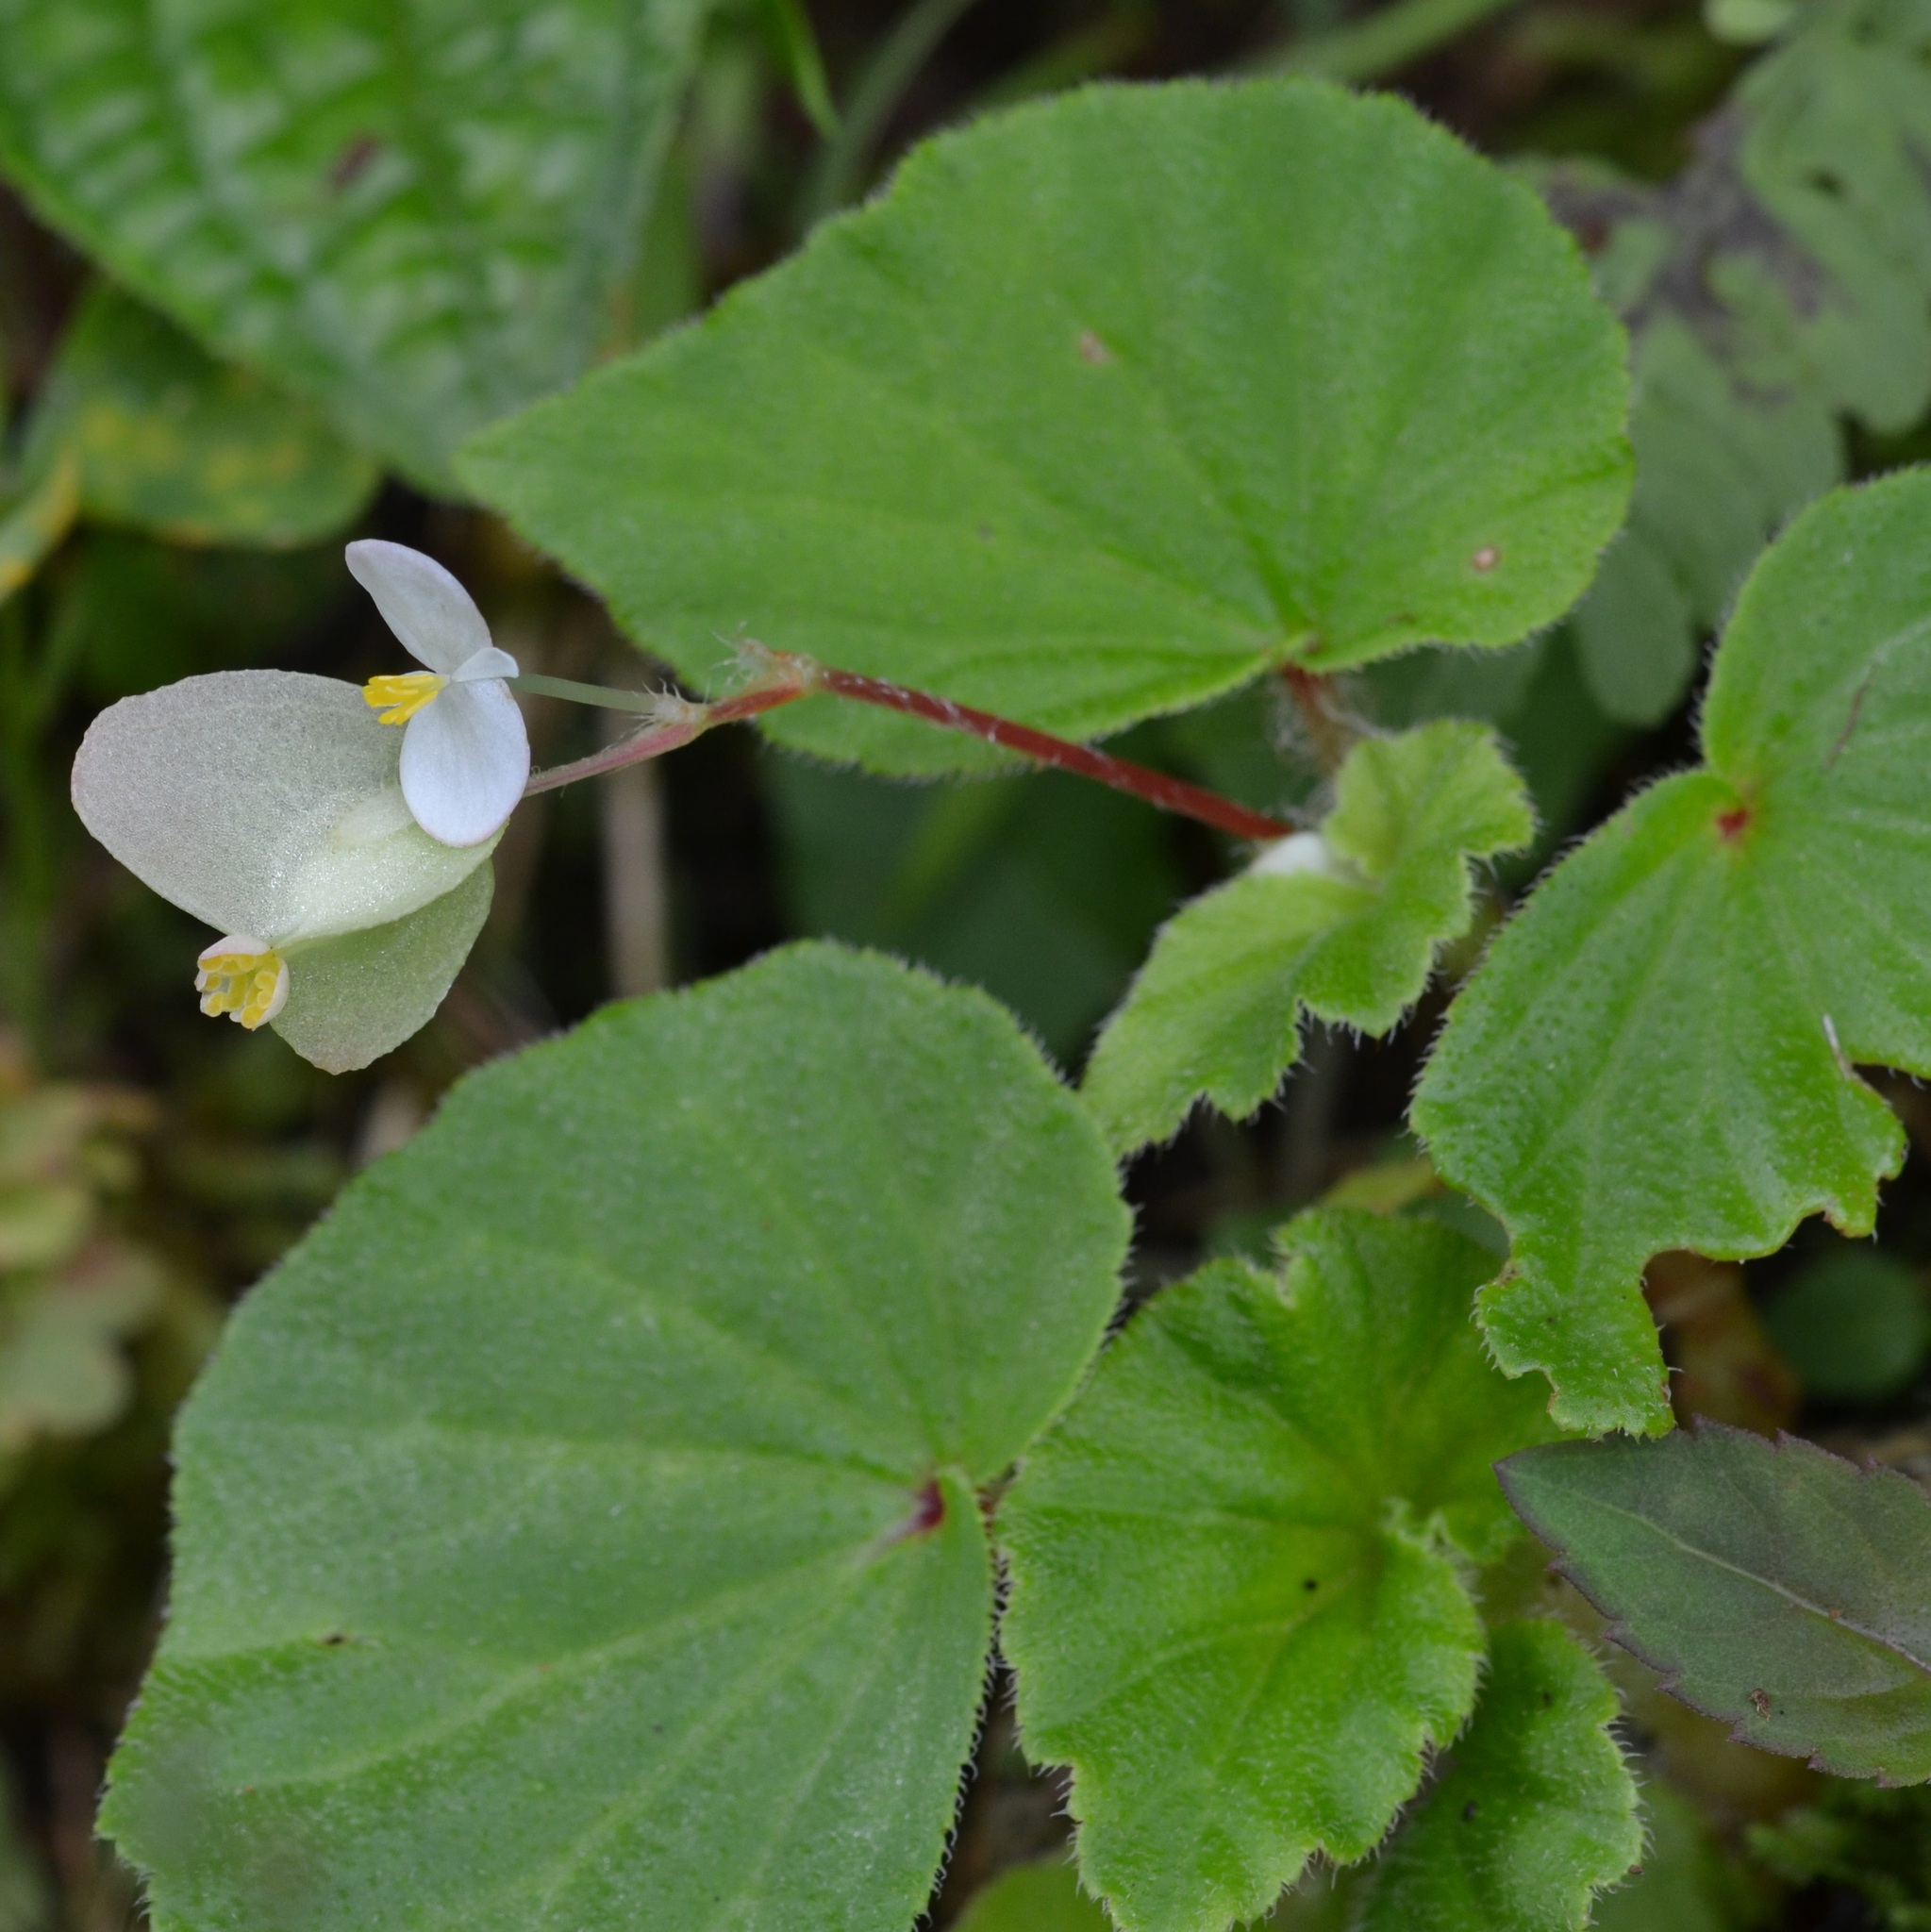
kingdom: Plantae
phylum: Tracheophyta
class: Magnoliopsida
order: Cucurbitales
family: Begoniaceae
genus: Begonia
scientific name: Begonia hirtella
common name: Brazilian begonia
